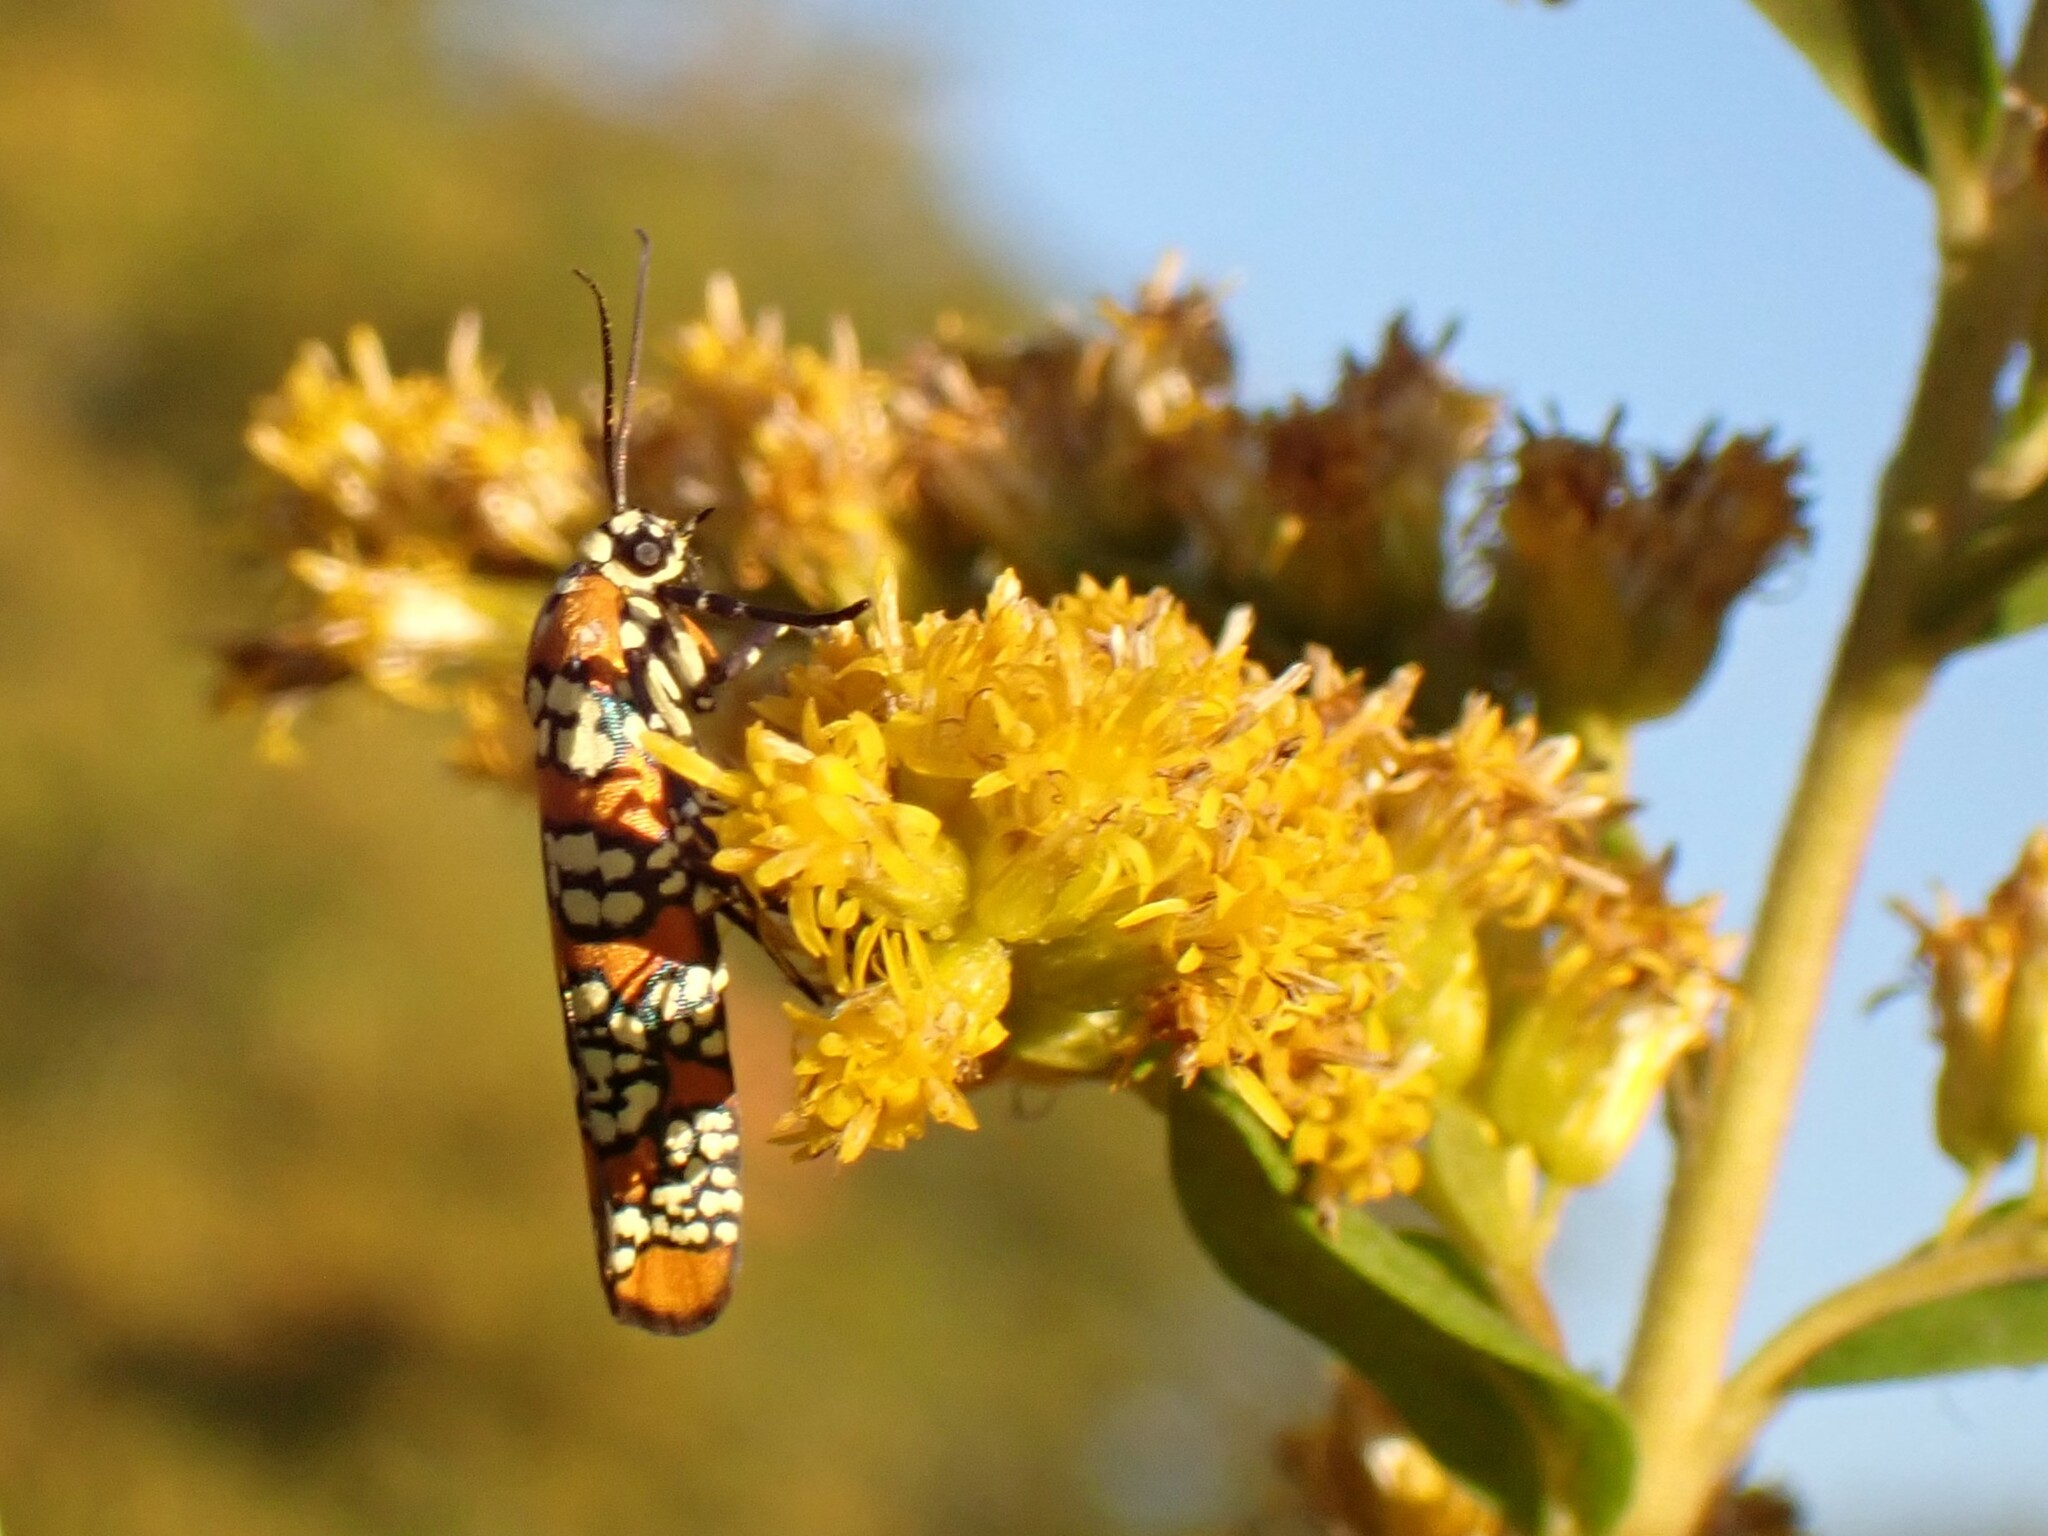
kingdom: Animalia
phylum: Arthropoda
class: Insecta
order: Lepidoptera
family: Attevidae
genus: Atteva
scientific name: Atteva punctella
